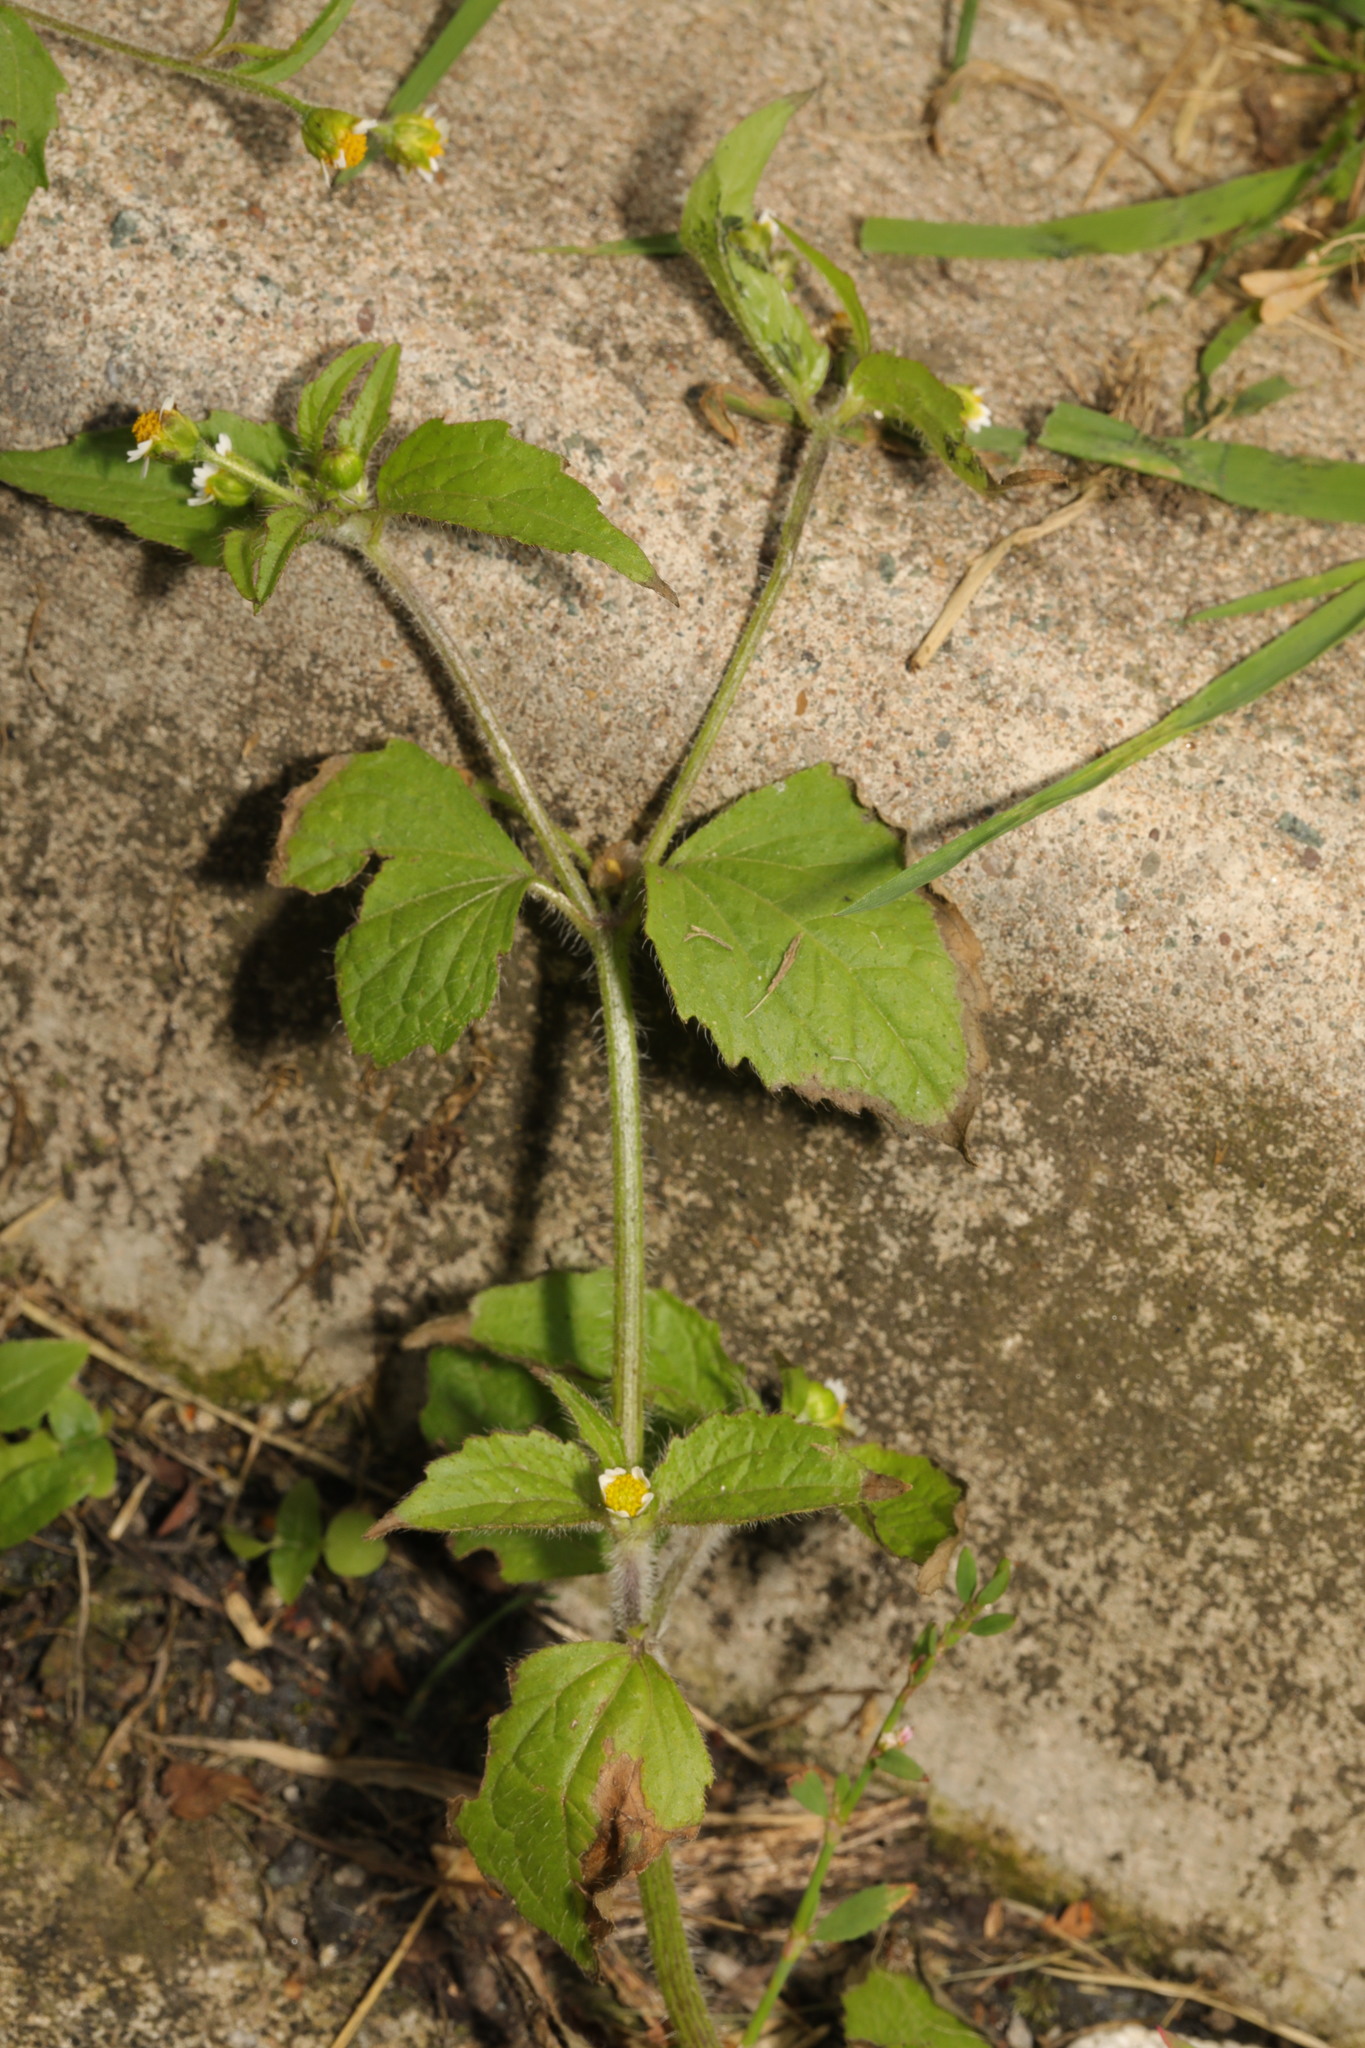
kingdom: Plantae
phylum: Tracheophyta
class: Magnoliopsida
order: Asterales
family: Asteraceae
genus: Galinsoga
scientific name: Galinsoga quadriradiata
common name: Shaggy soldier
